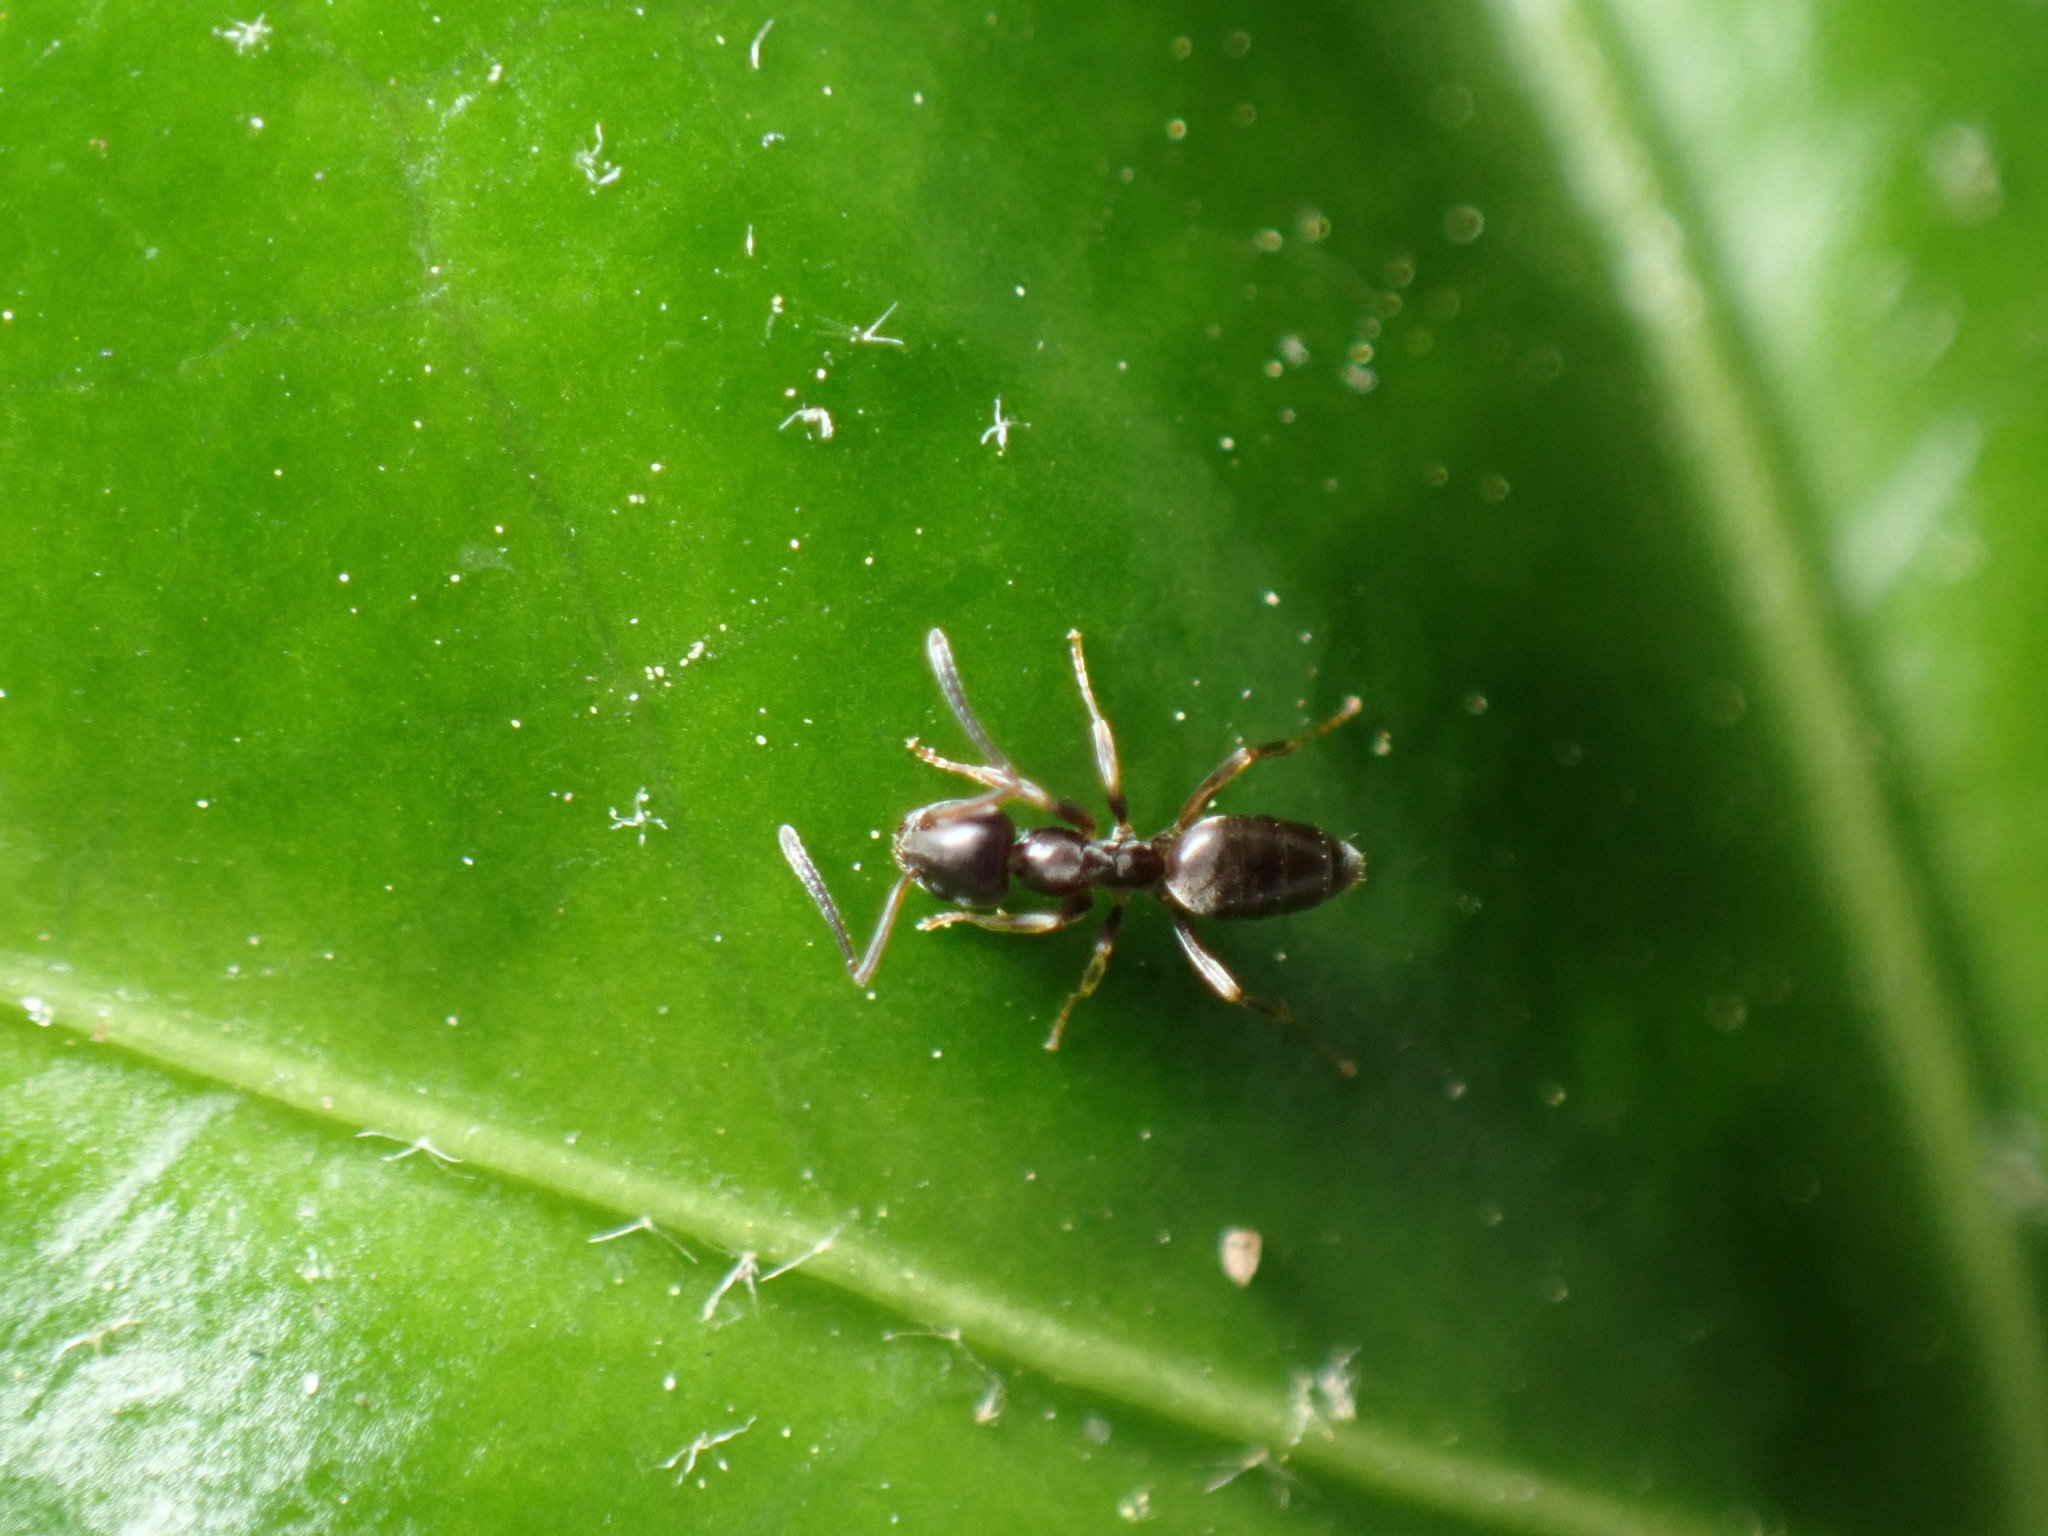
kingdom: Animalia
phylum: Arthropoda
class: Insecta
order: Hymenoptera
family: Formicidae
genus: Tapinoma
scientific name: Tapinoma sessile
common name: Odorous house ant
